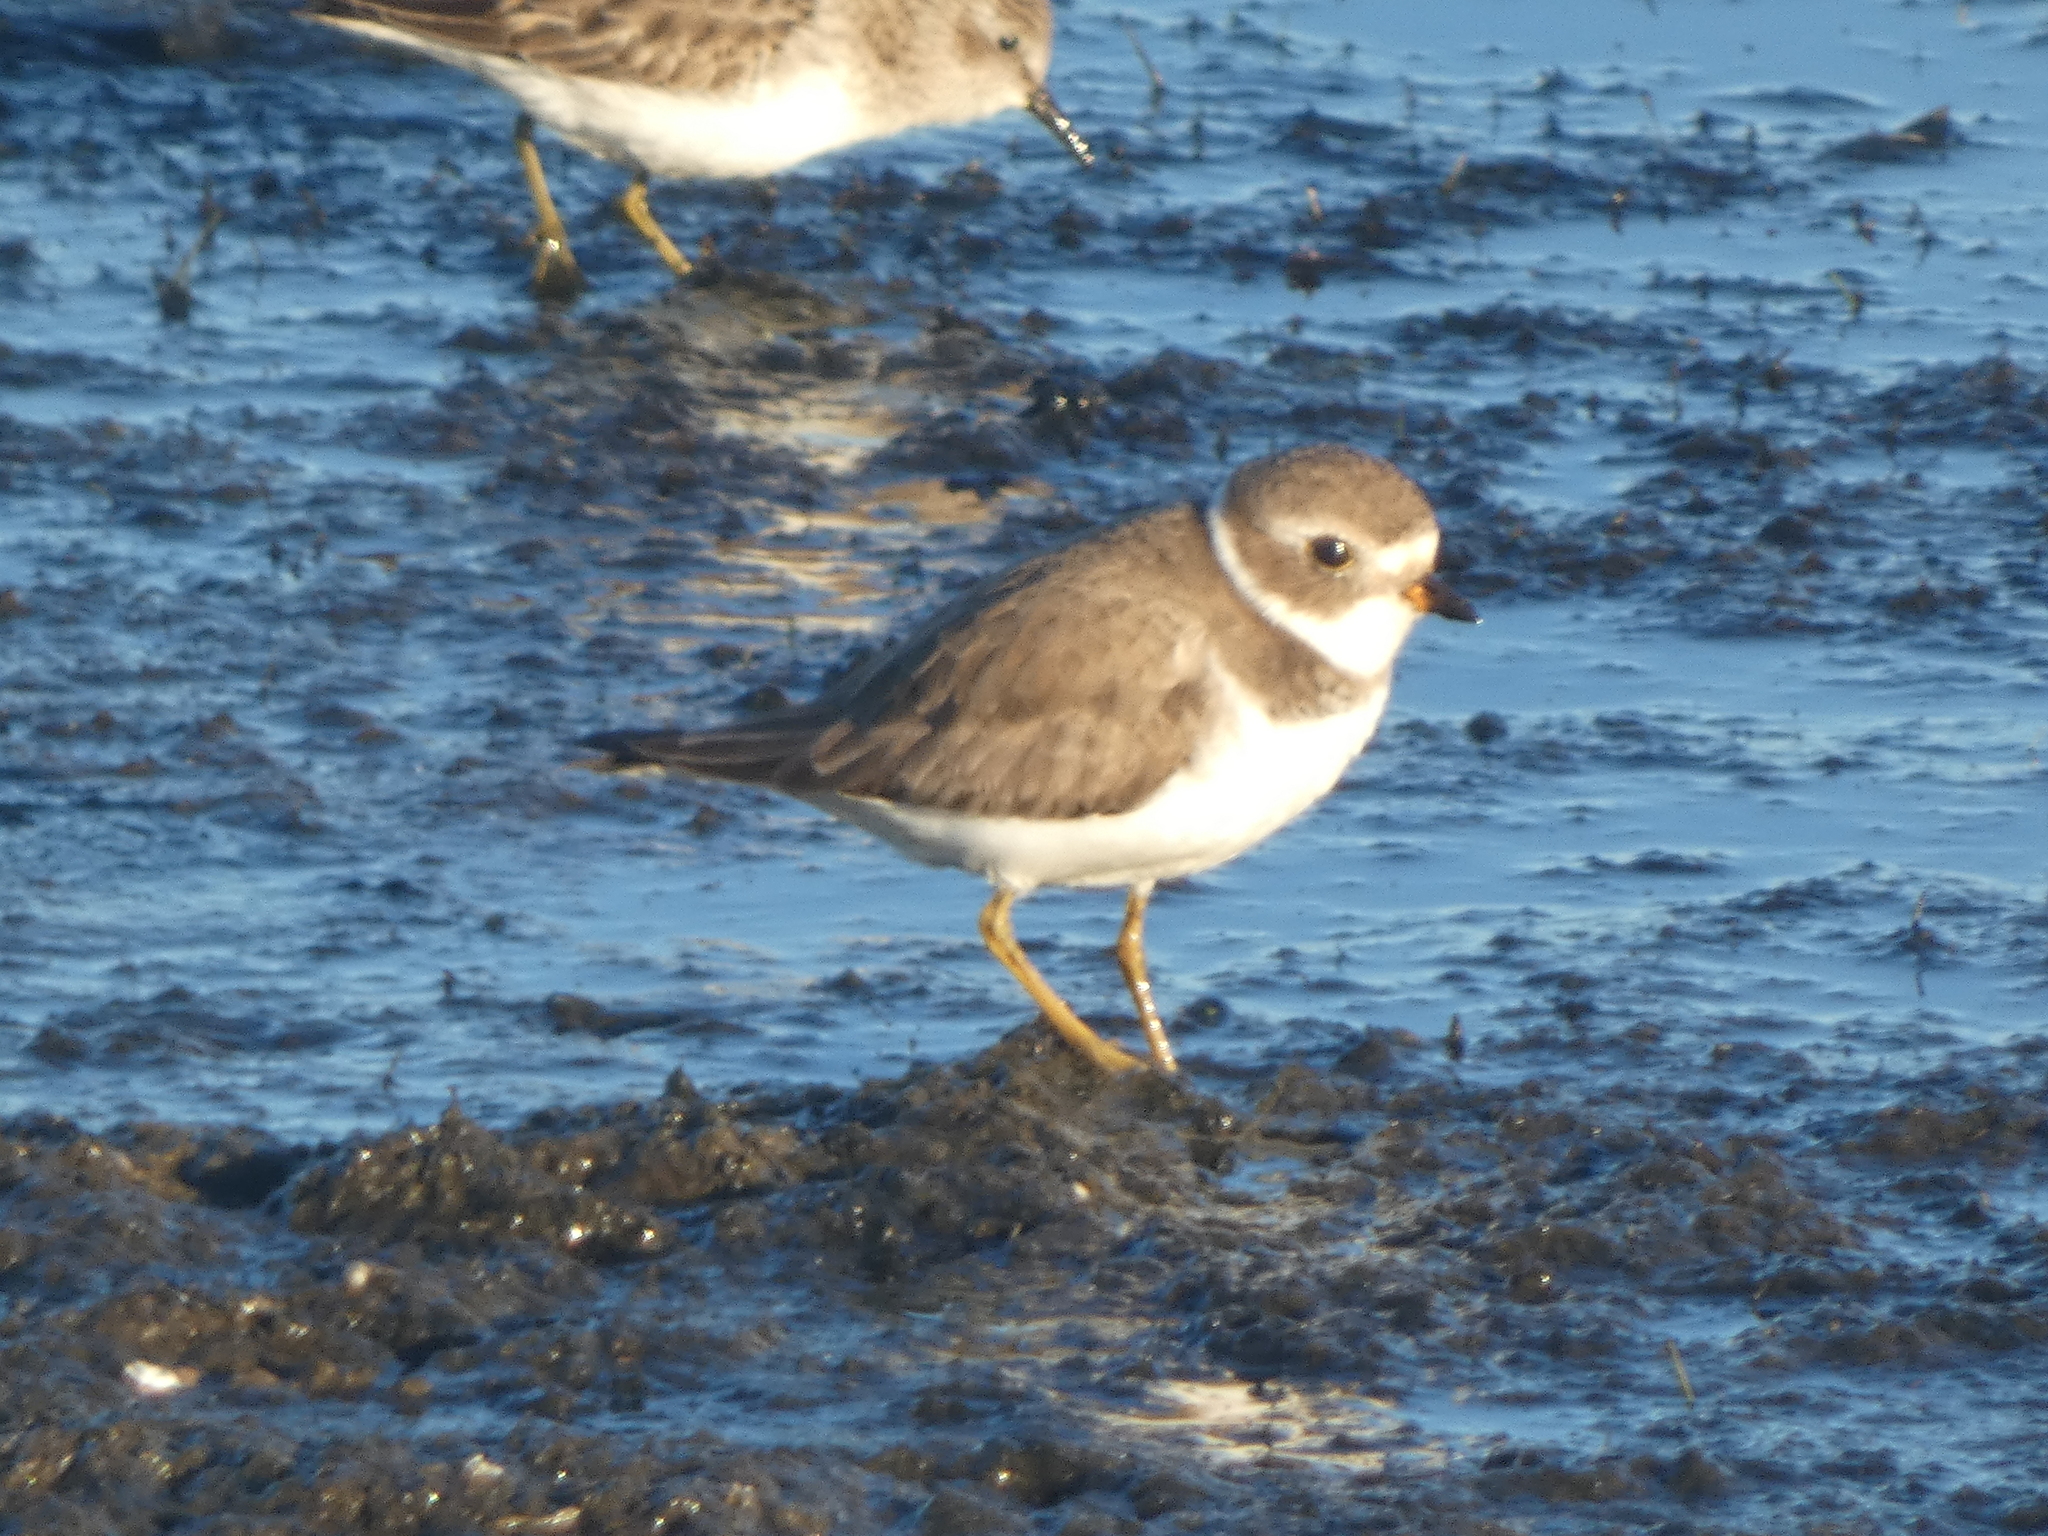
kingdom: Animalia
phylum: Chordata
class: Aves
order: Charadriiformes
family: Charadriidae
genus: Charadrius
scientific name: Charadrius semipalmatus
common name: Semipalmated plover
